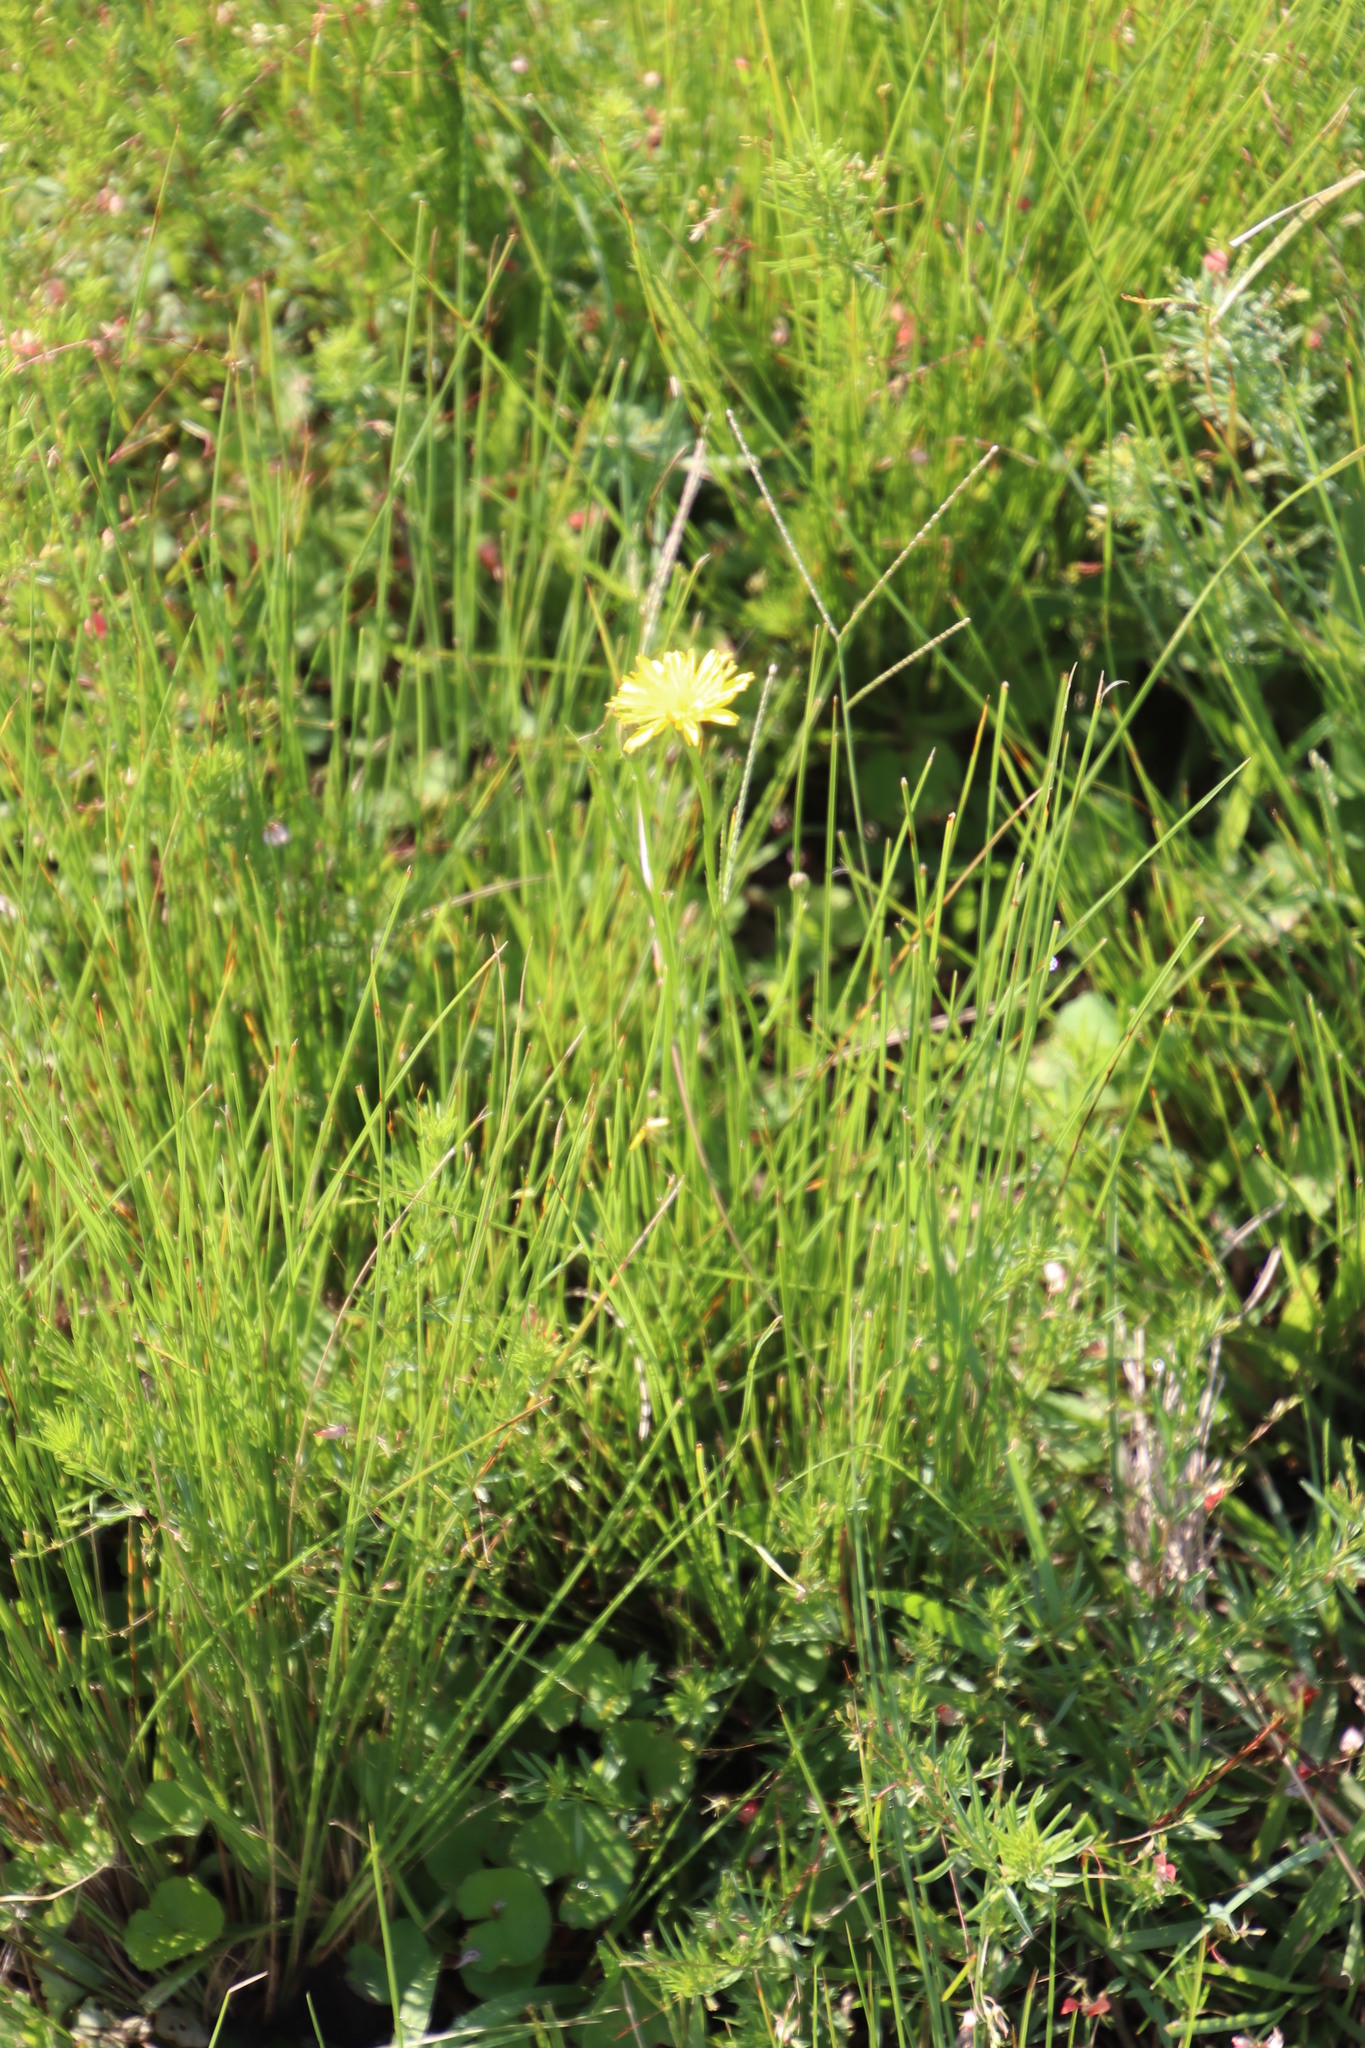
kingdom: Plantae
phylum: Tracheophyta
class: Magnoliopsida
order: Asterales
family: Asteraceae
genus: Hypochaeris
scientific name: Hypochaeris radicata
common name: Flatweed
